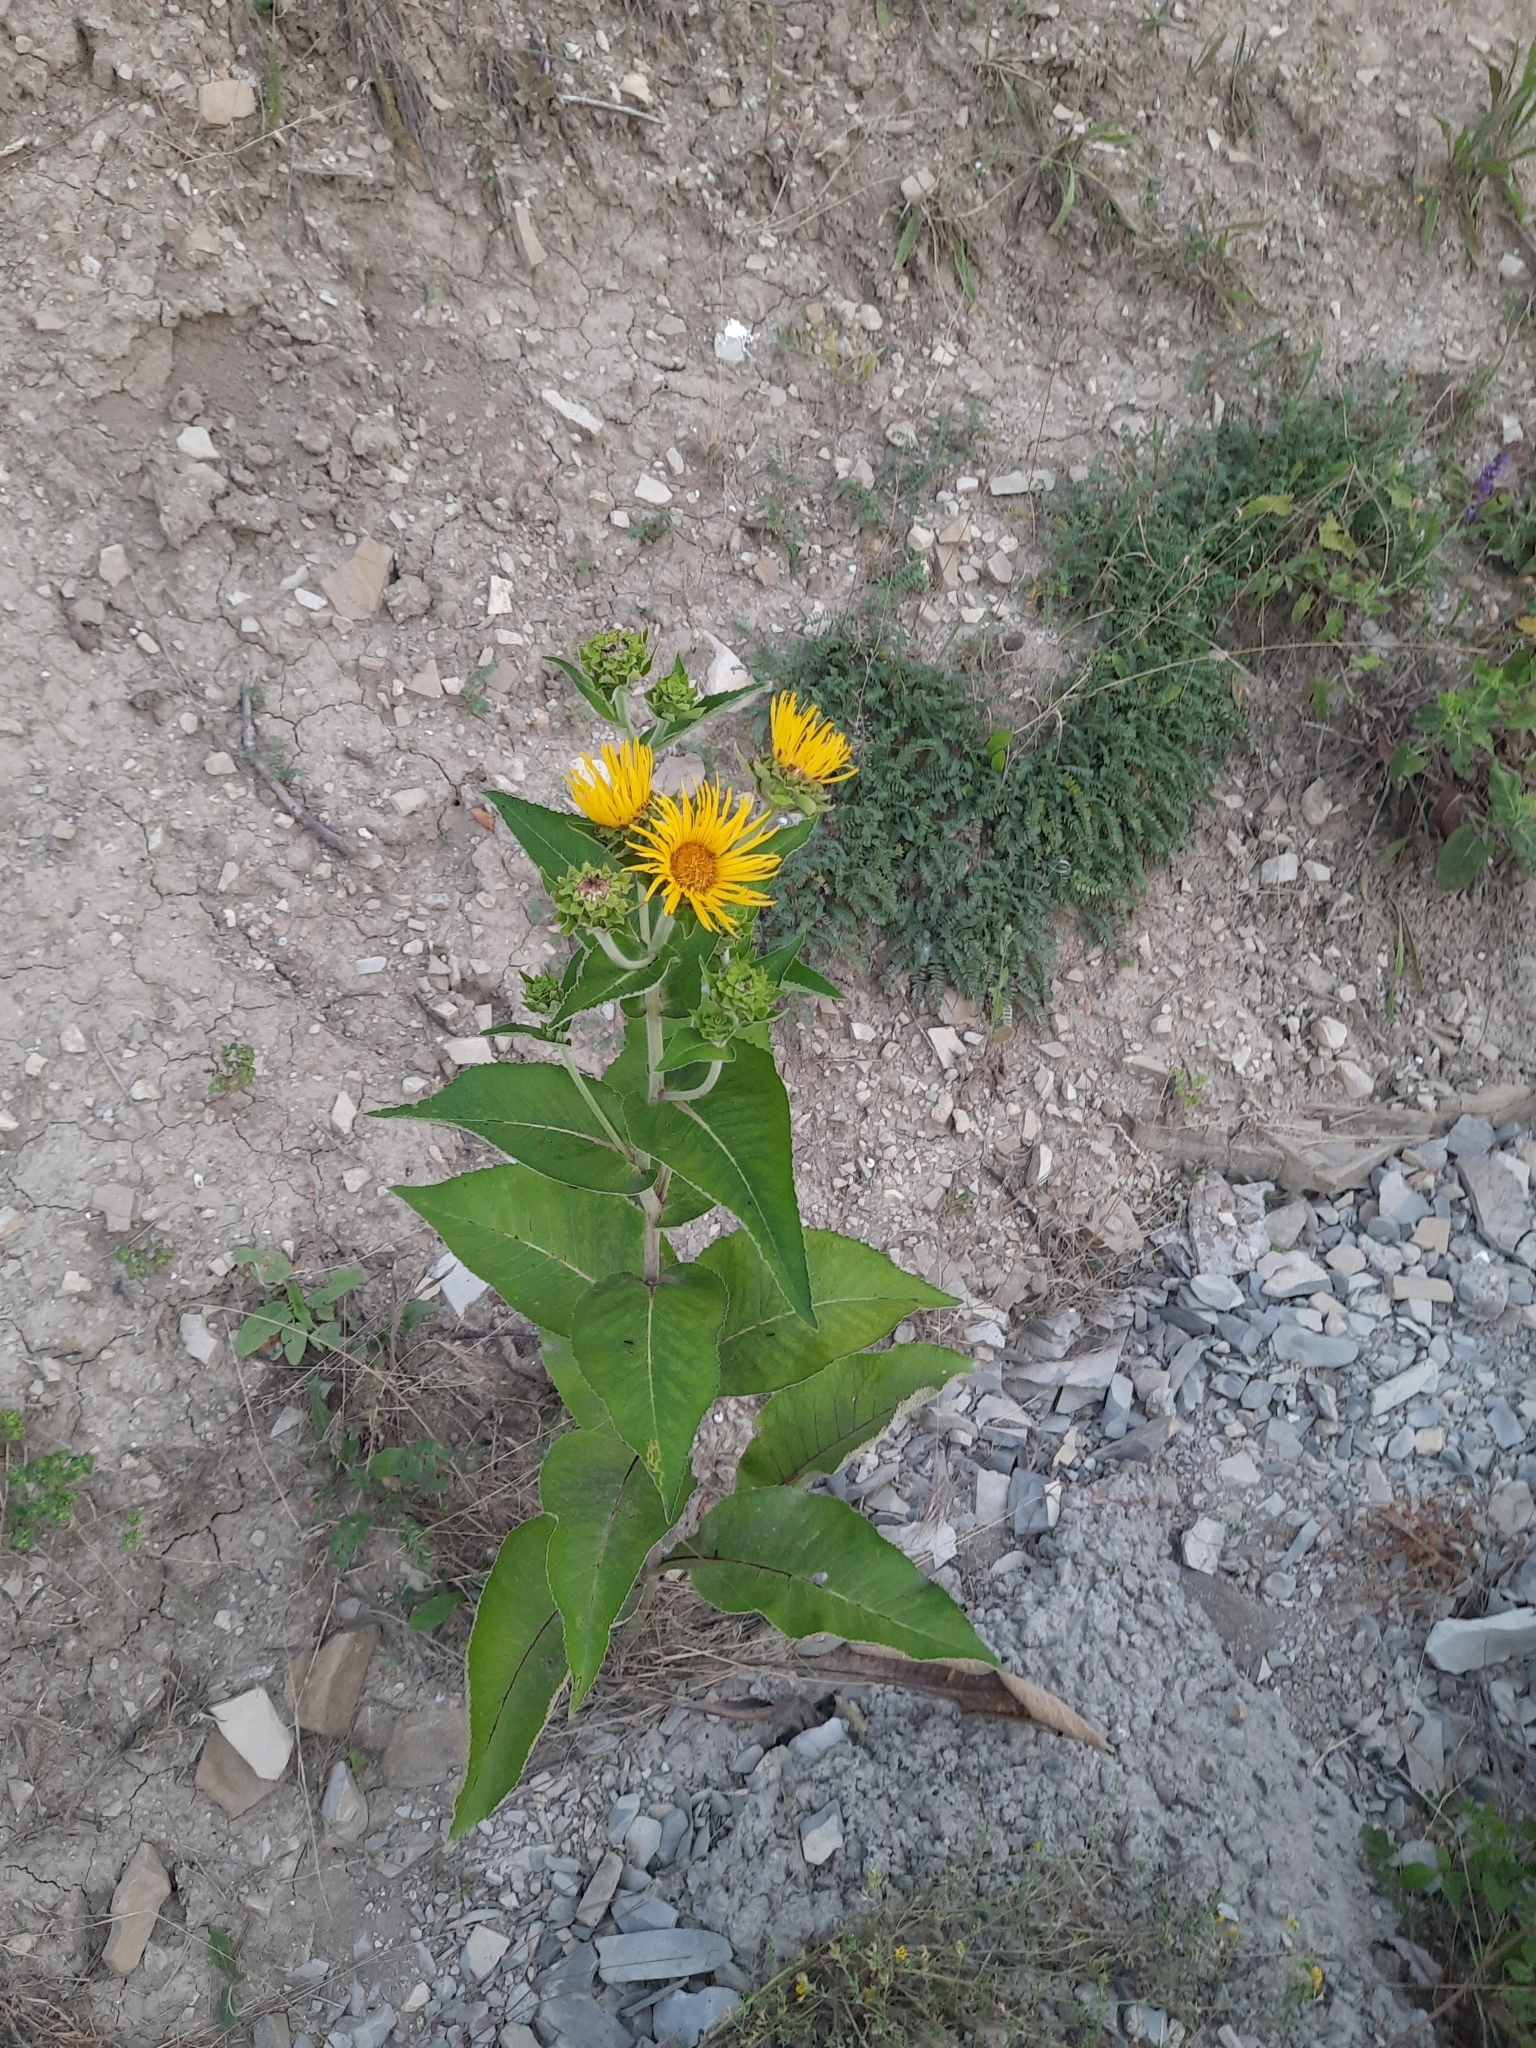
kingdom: Plantae
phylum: Tracheophyta
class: Magnoliopsida
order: Asterales
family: Asteraceae
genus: Inula
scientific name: Inula helenium
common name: Elecampane
